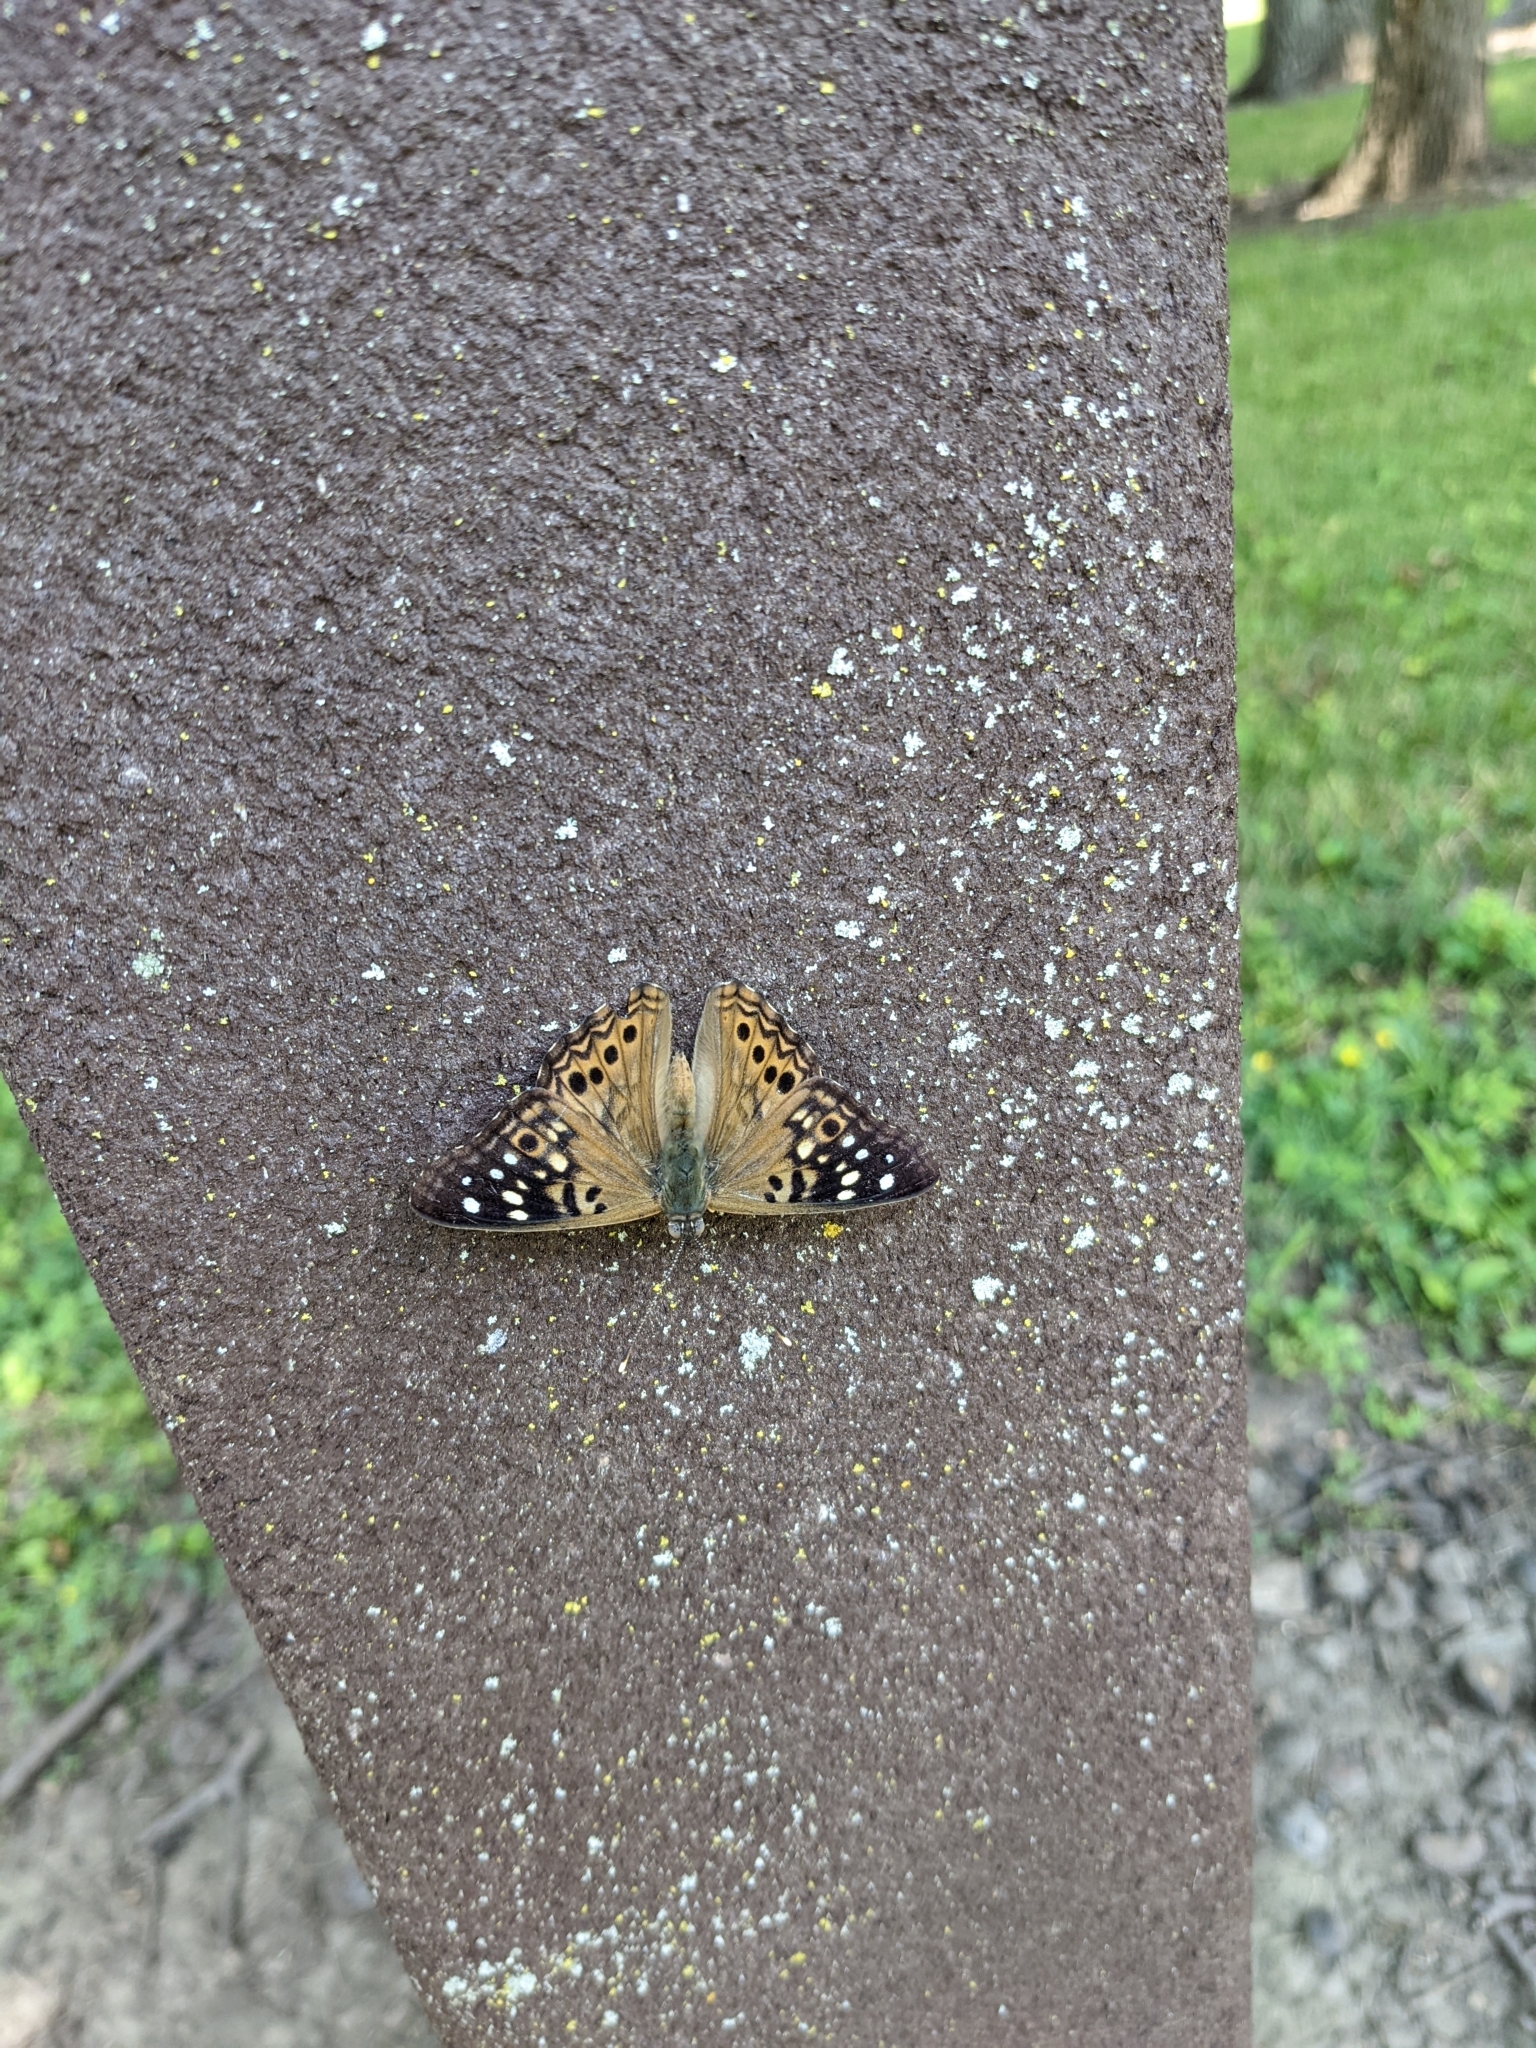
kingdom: Animalia
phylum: Arthropoda
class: Insecta
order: Lepidoptera
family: Nymphalidae
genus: Asterocampa
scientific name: Asterocampa celtis
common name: Hackberry emperor
